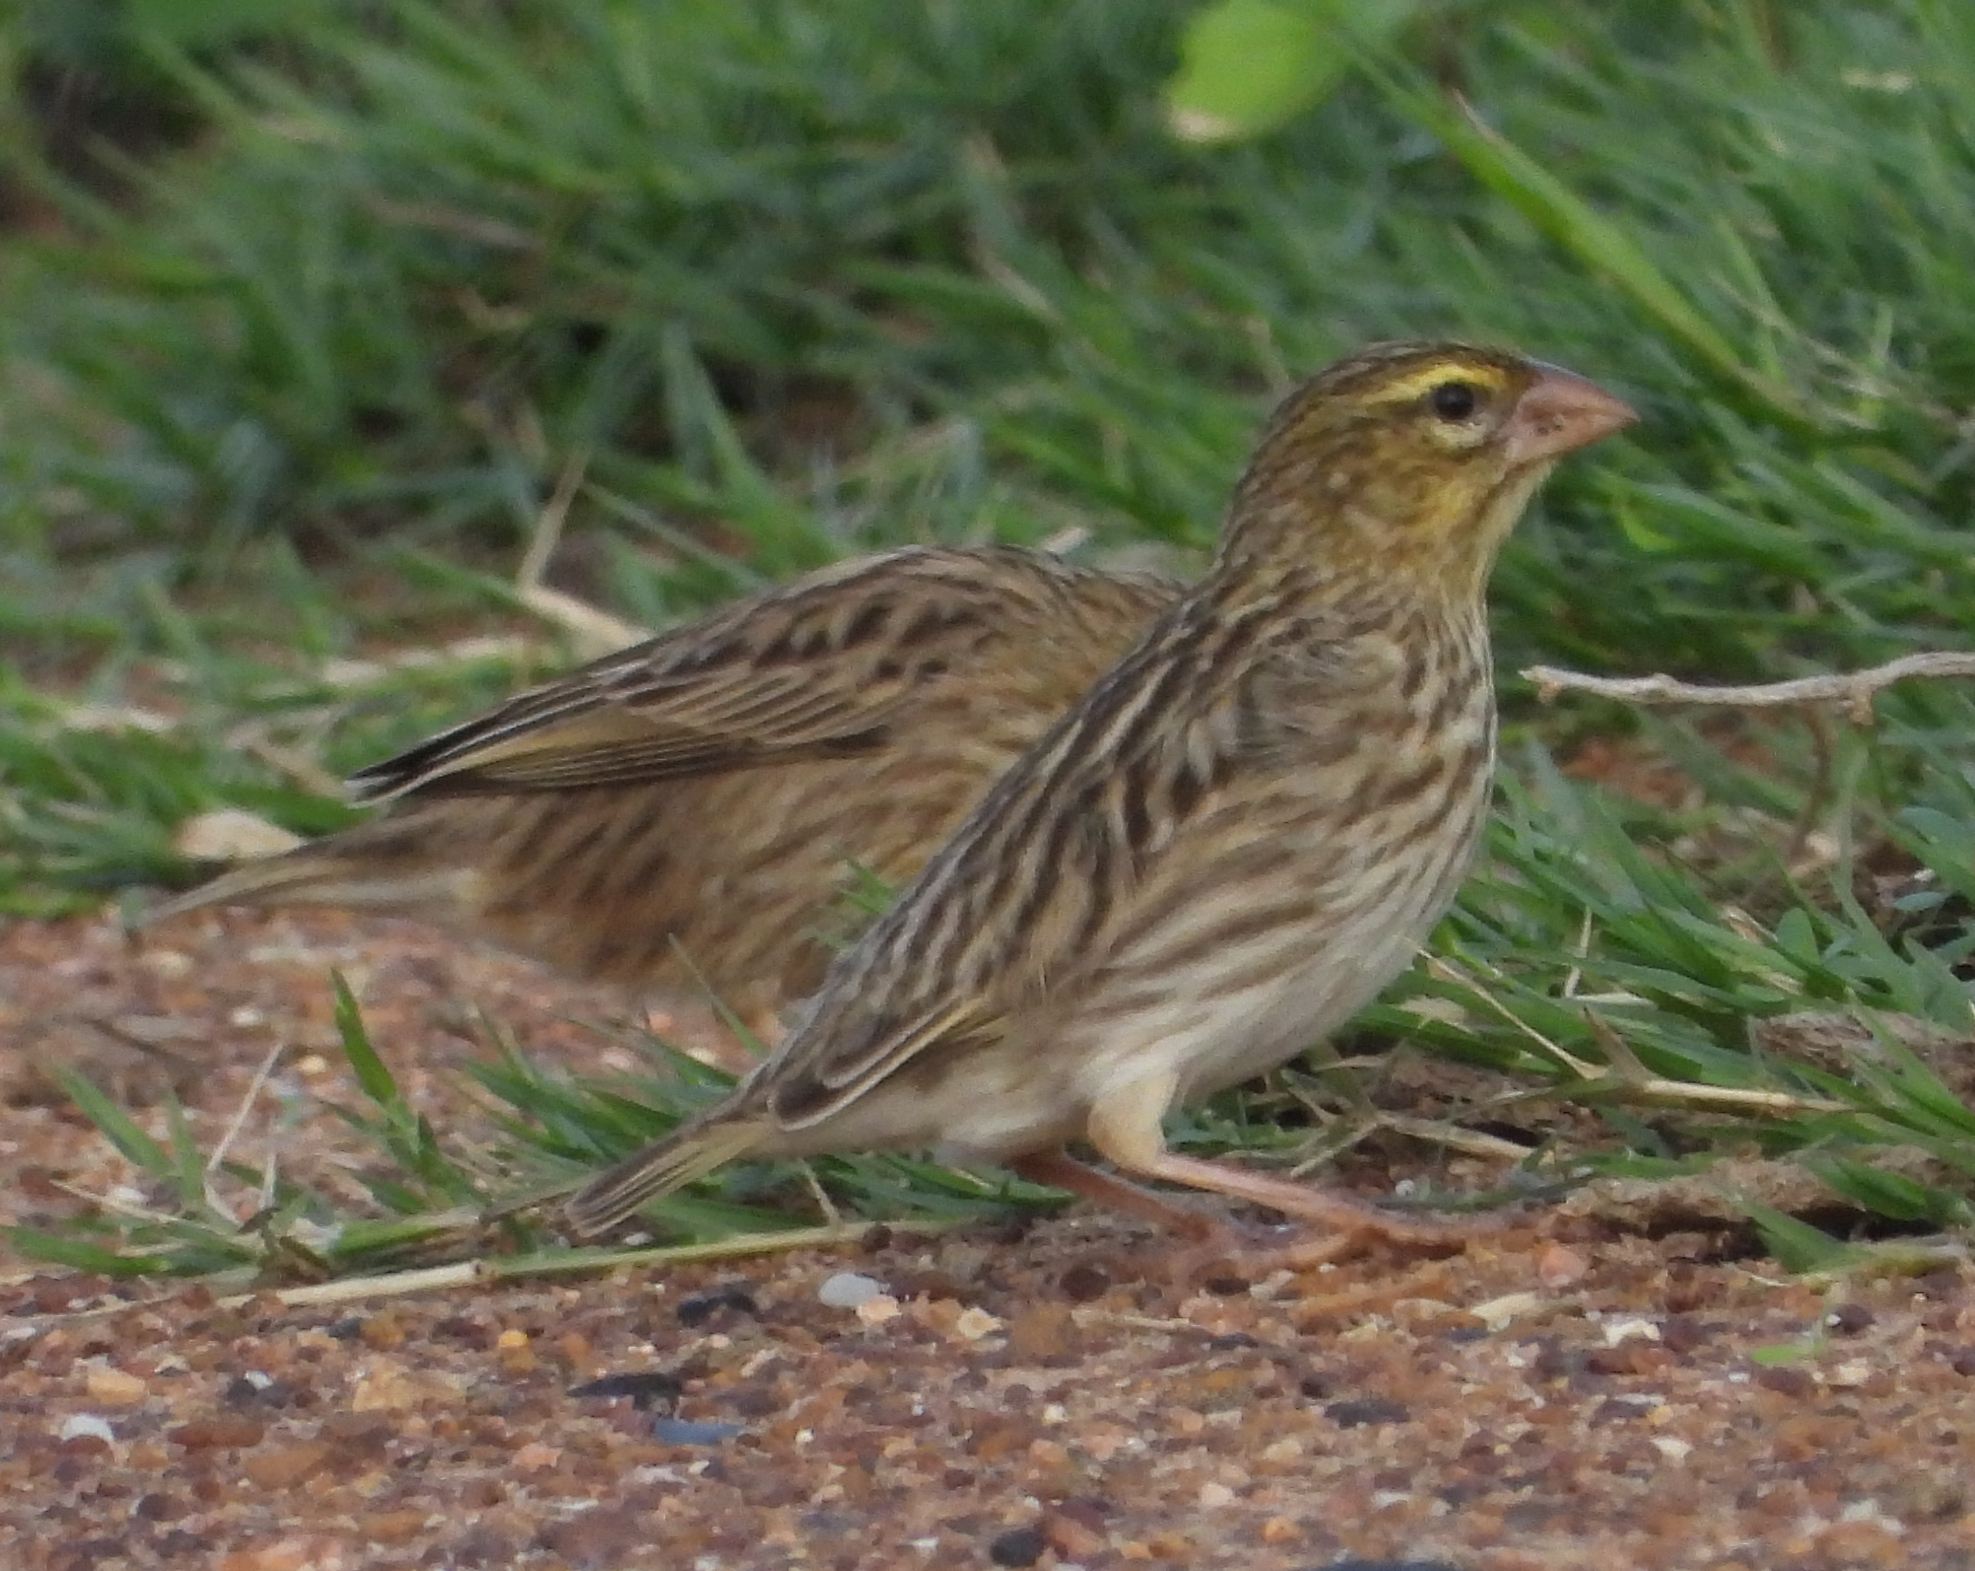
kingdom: Animalia
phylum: Chordata
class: Aves
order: Passeriformes
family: Ploceidae
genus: Euplectes
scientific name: Euplectes orix
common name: Southern red bishop
